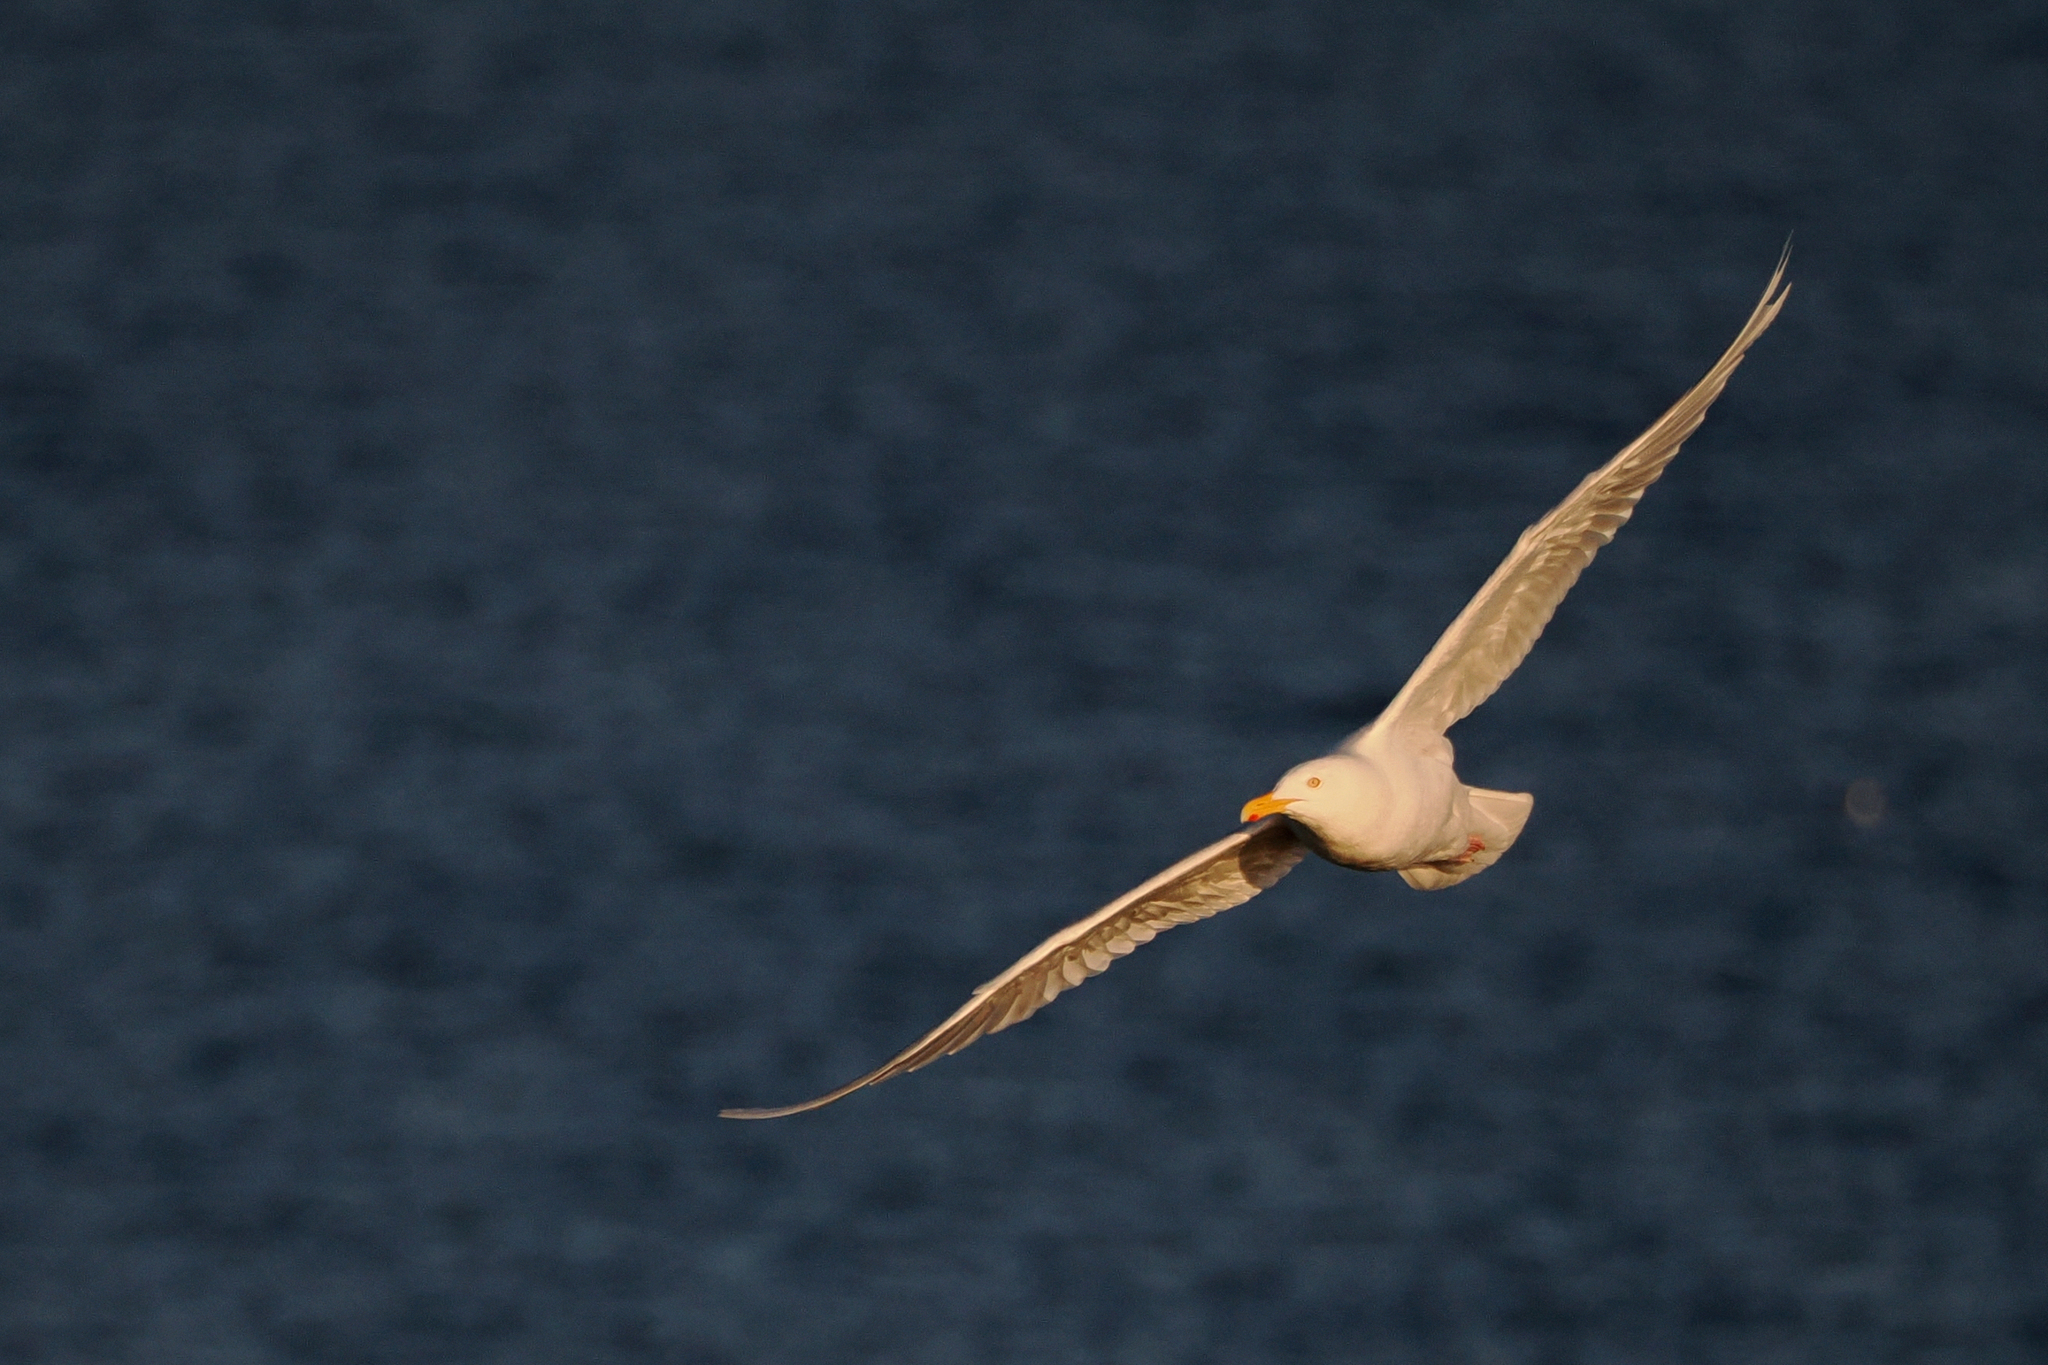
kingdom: Animalia
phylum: Chordata
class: Aves
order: Charadriiformes
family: Laridae
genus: Larus
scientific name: Larus hyperboreus
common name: Glaucous gull
